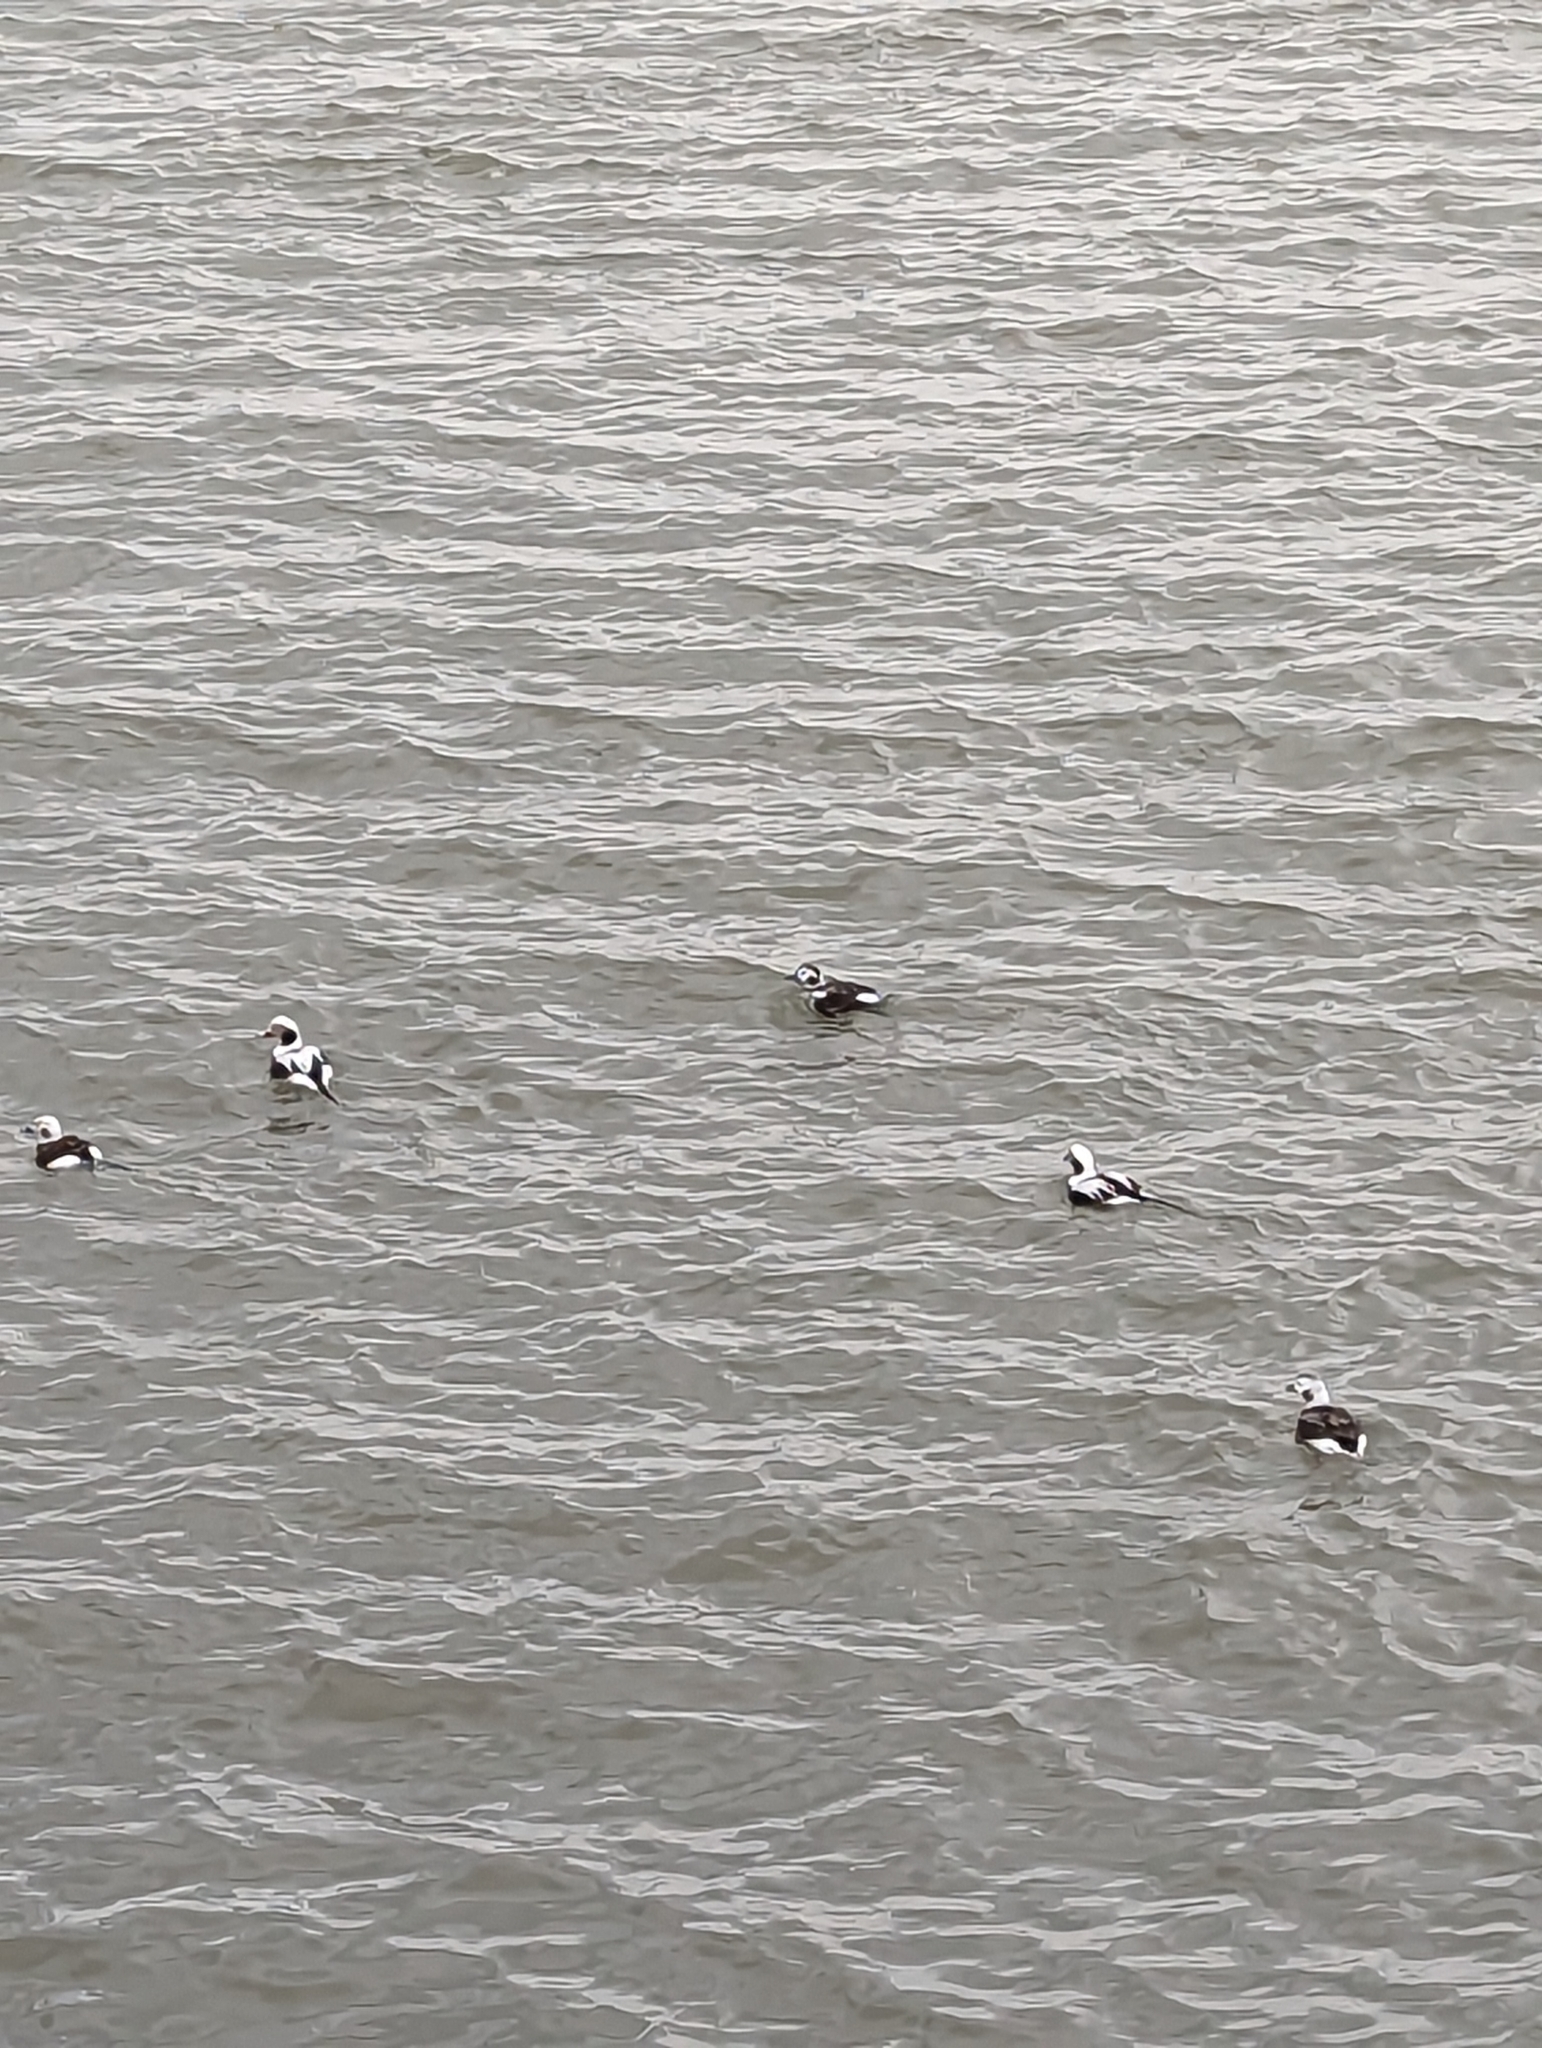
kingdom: Animalia
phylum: Chordata
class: Aves
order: Anseriformes
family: Anatidae
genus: Clangula
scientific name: Clangula hyemalis
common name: Long-tailed duck
